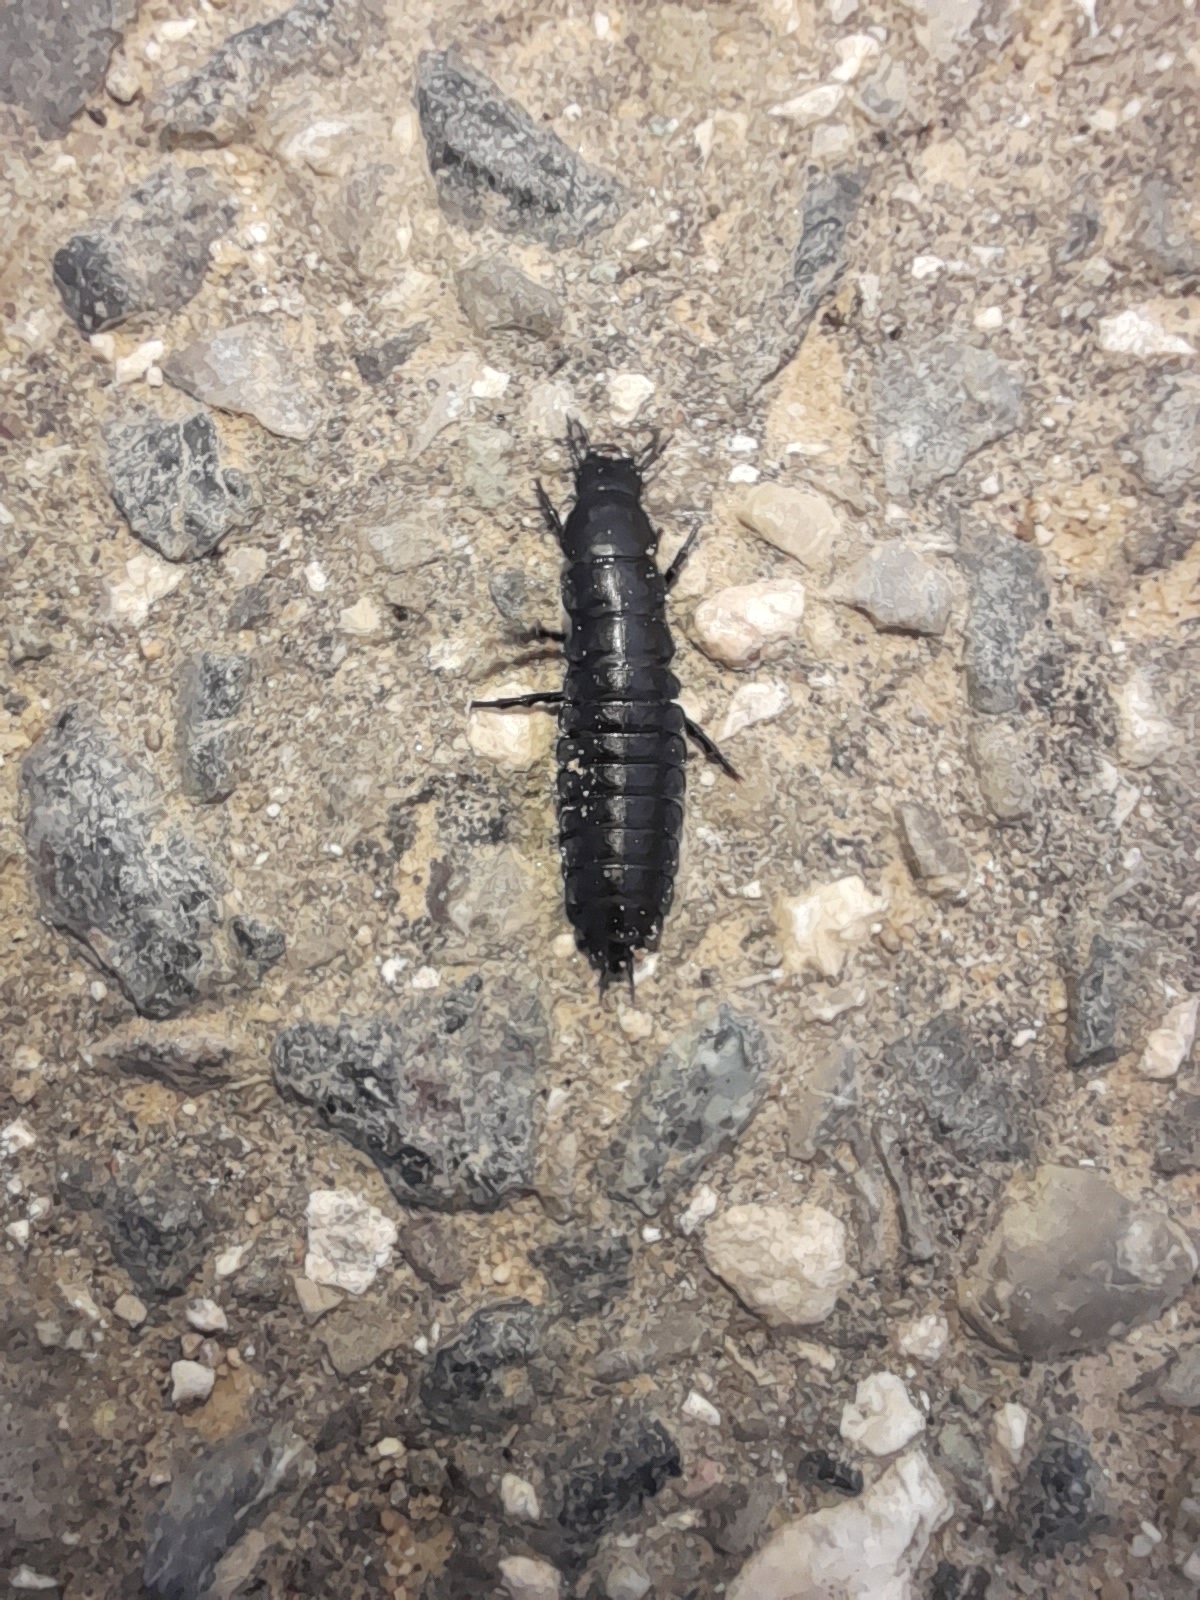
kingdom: Animalia
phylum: Arthropoda
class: Insecta
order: Coleoptera
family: Carabidae
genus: Carabus
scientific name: Carabus
